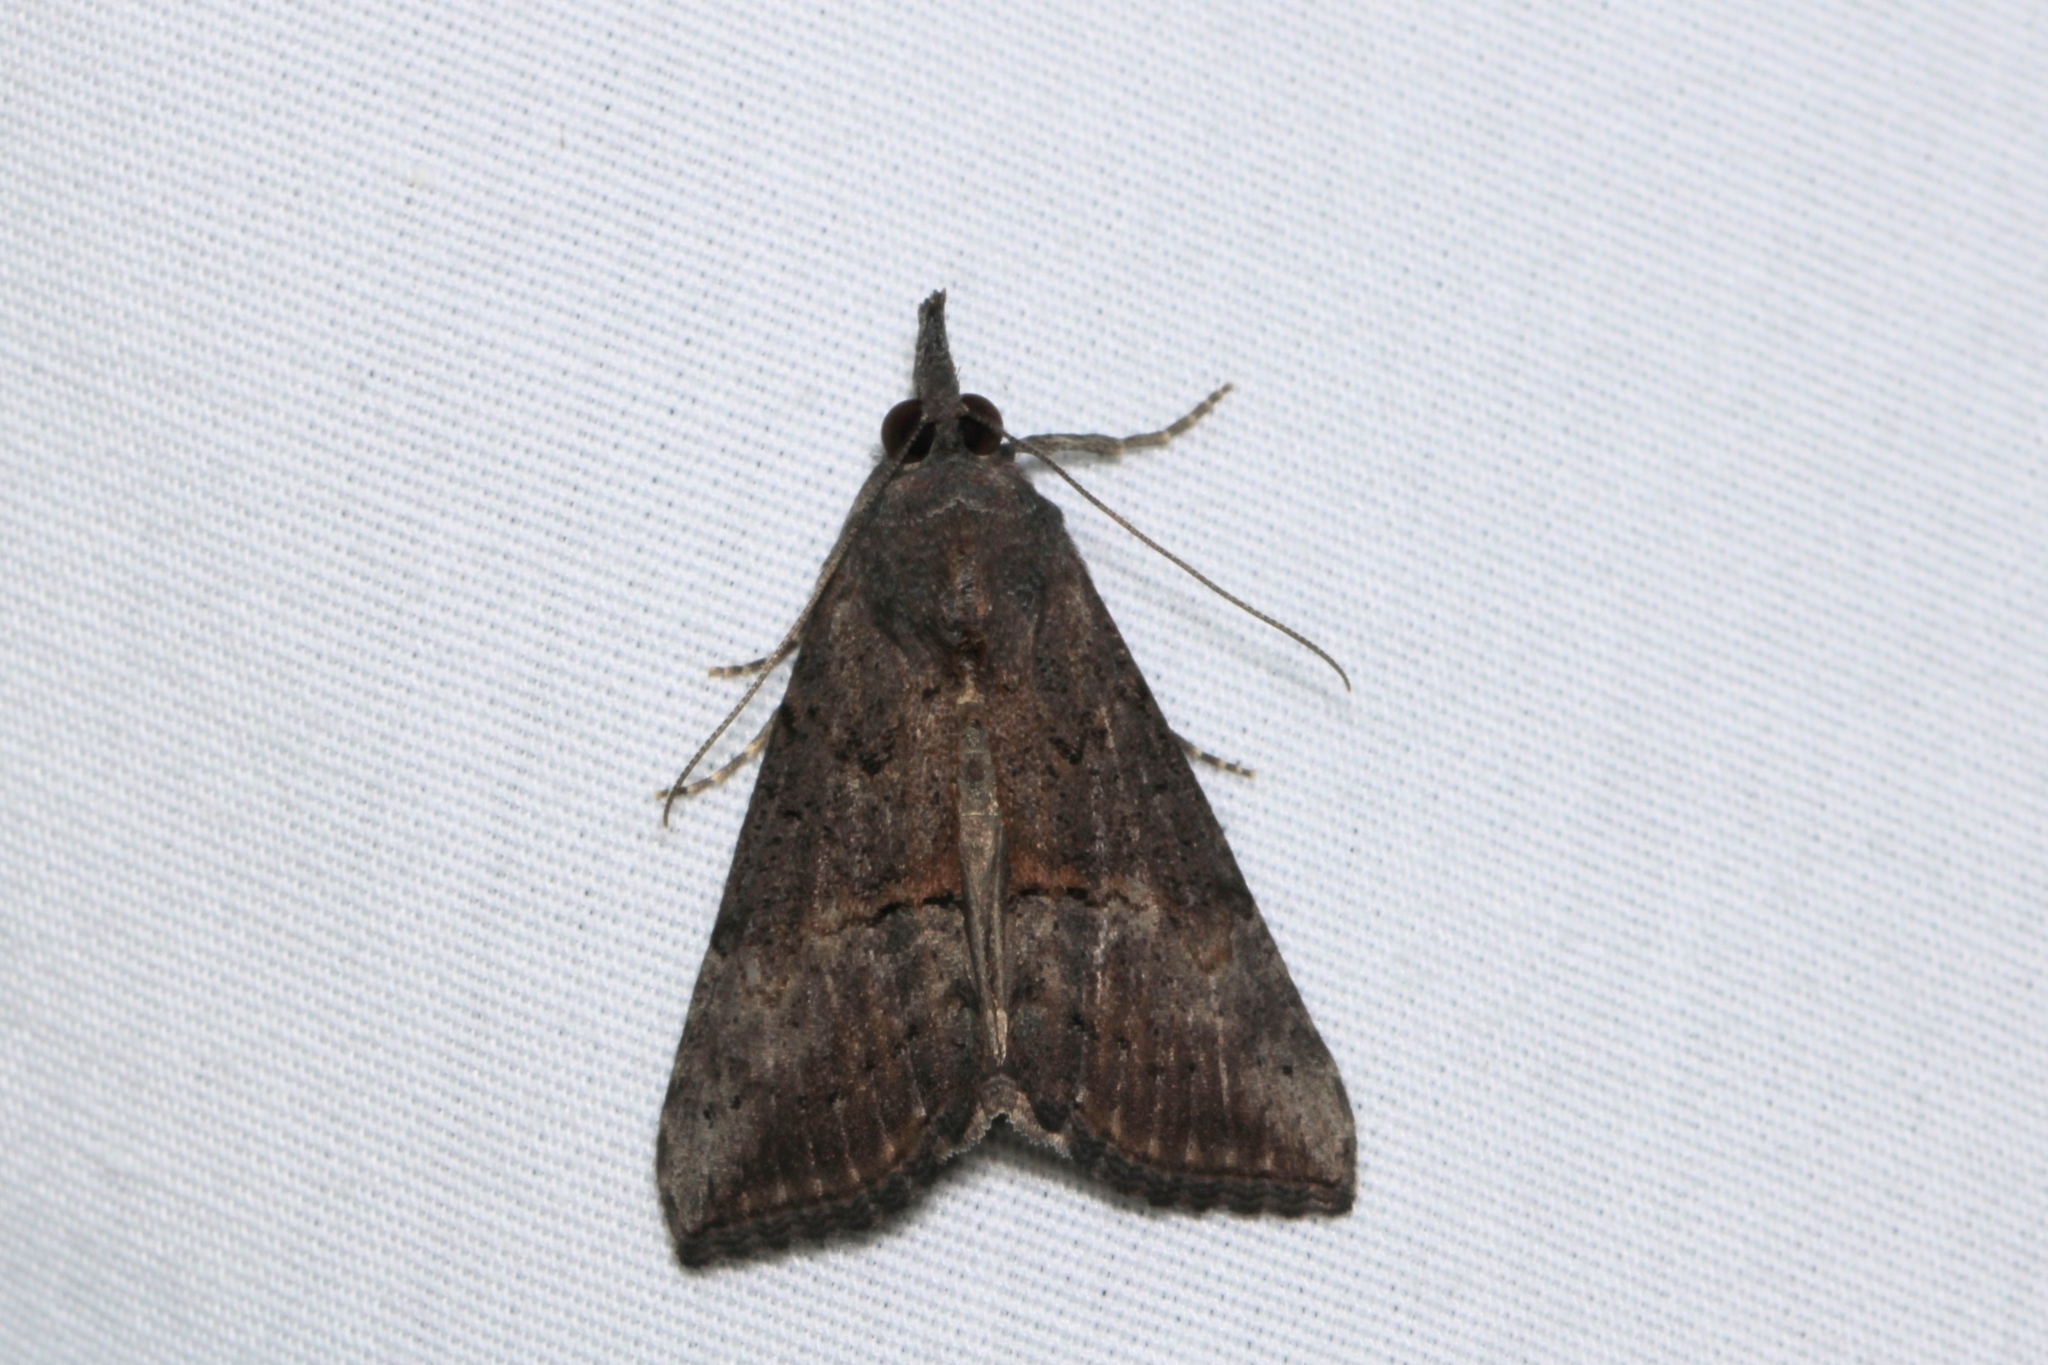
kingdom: Animalia
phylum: Arthropoda
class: Insecta
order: Lepidoptera
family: Erebidae
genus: Hypena
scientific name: Hypena scabra
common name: Green cloverworm
